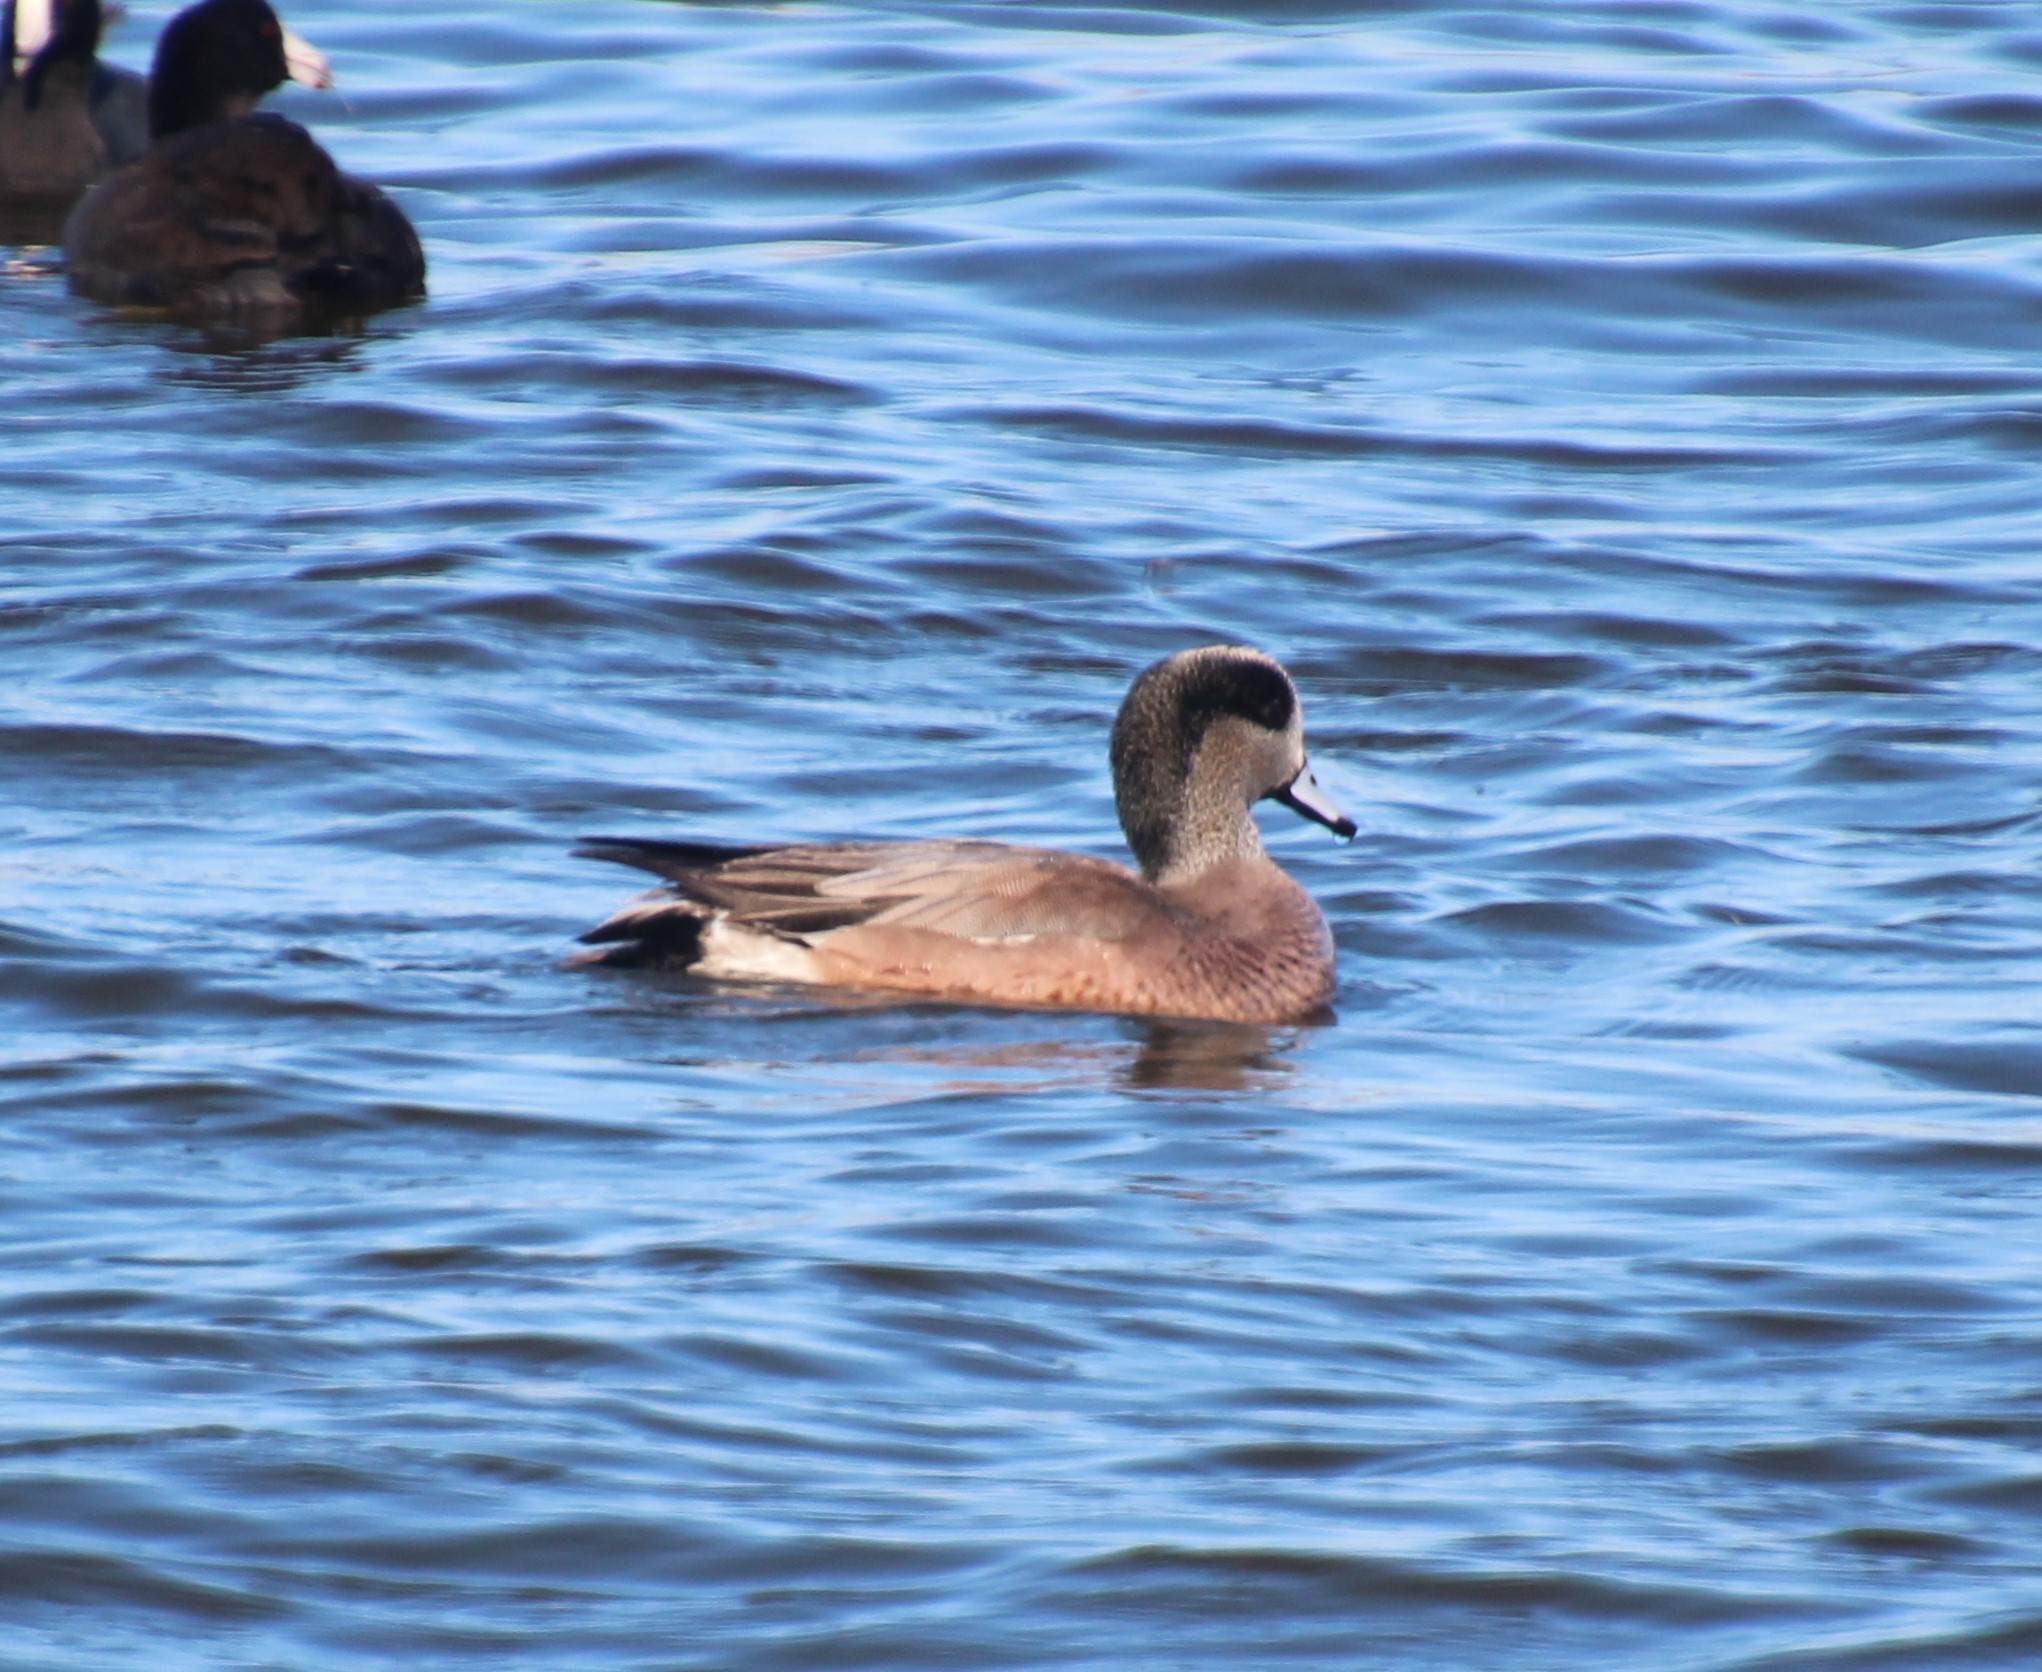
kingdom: Animalia
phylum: Chordata
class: Aves
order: Anseriformes
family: Anatidae
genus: Mareca
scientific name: Mareca americana
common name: American wigeon
